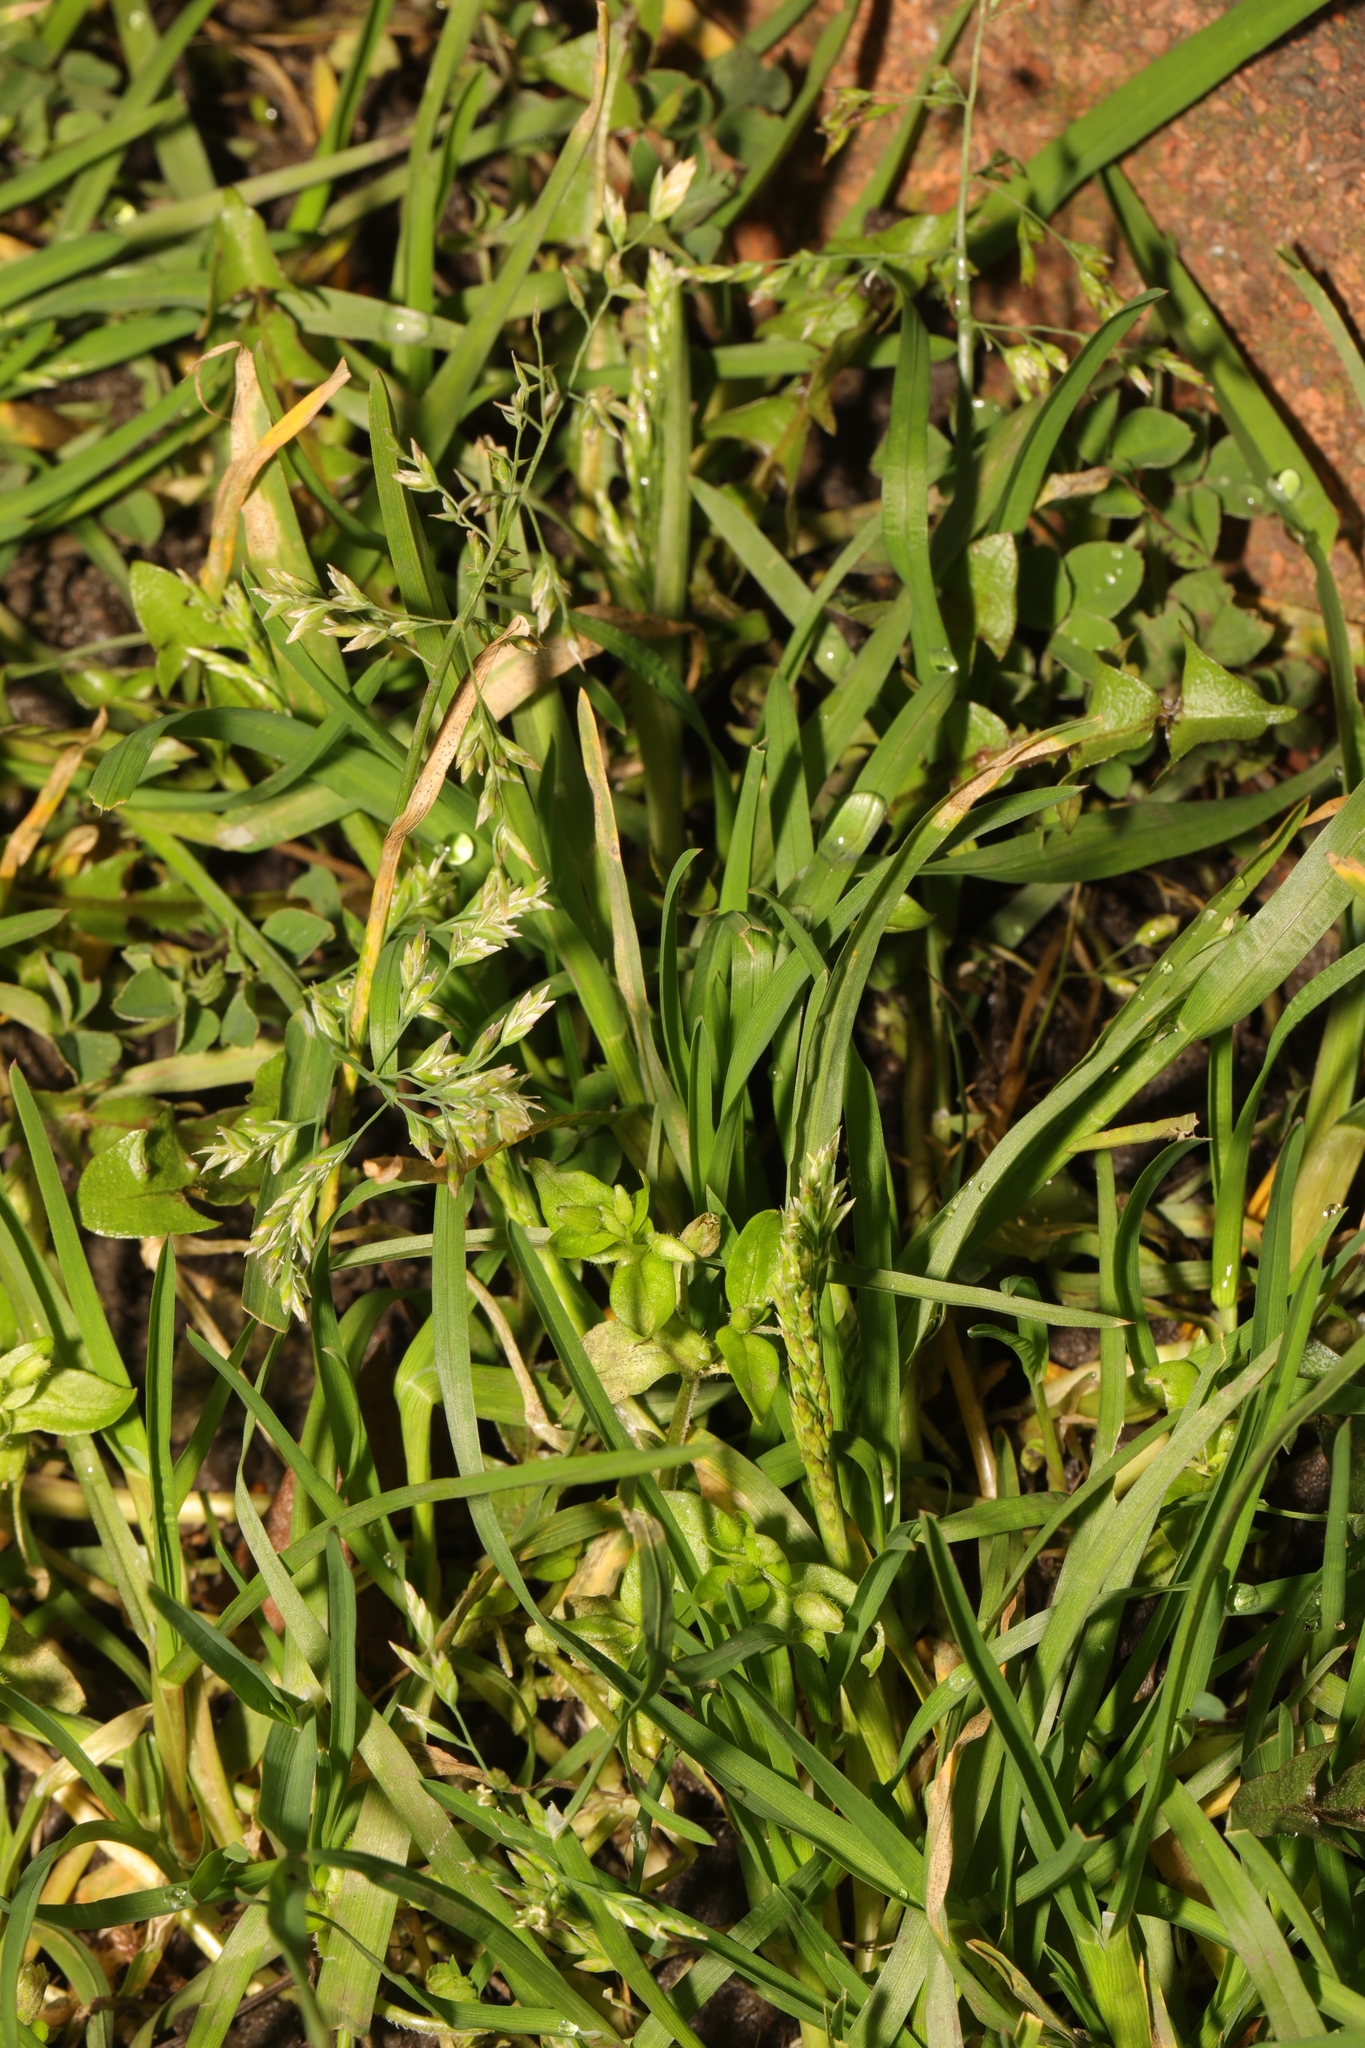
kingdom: Plantae
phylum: Tracheophyta
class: Liliopsida
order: Poales
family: Poaceae
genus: Poa
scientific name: Poa annua
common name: Annual bluegrass
